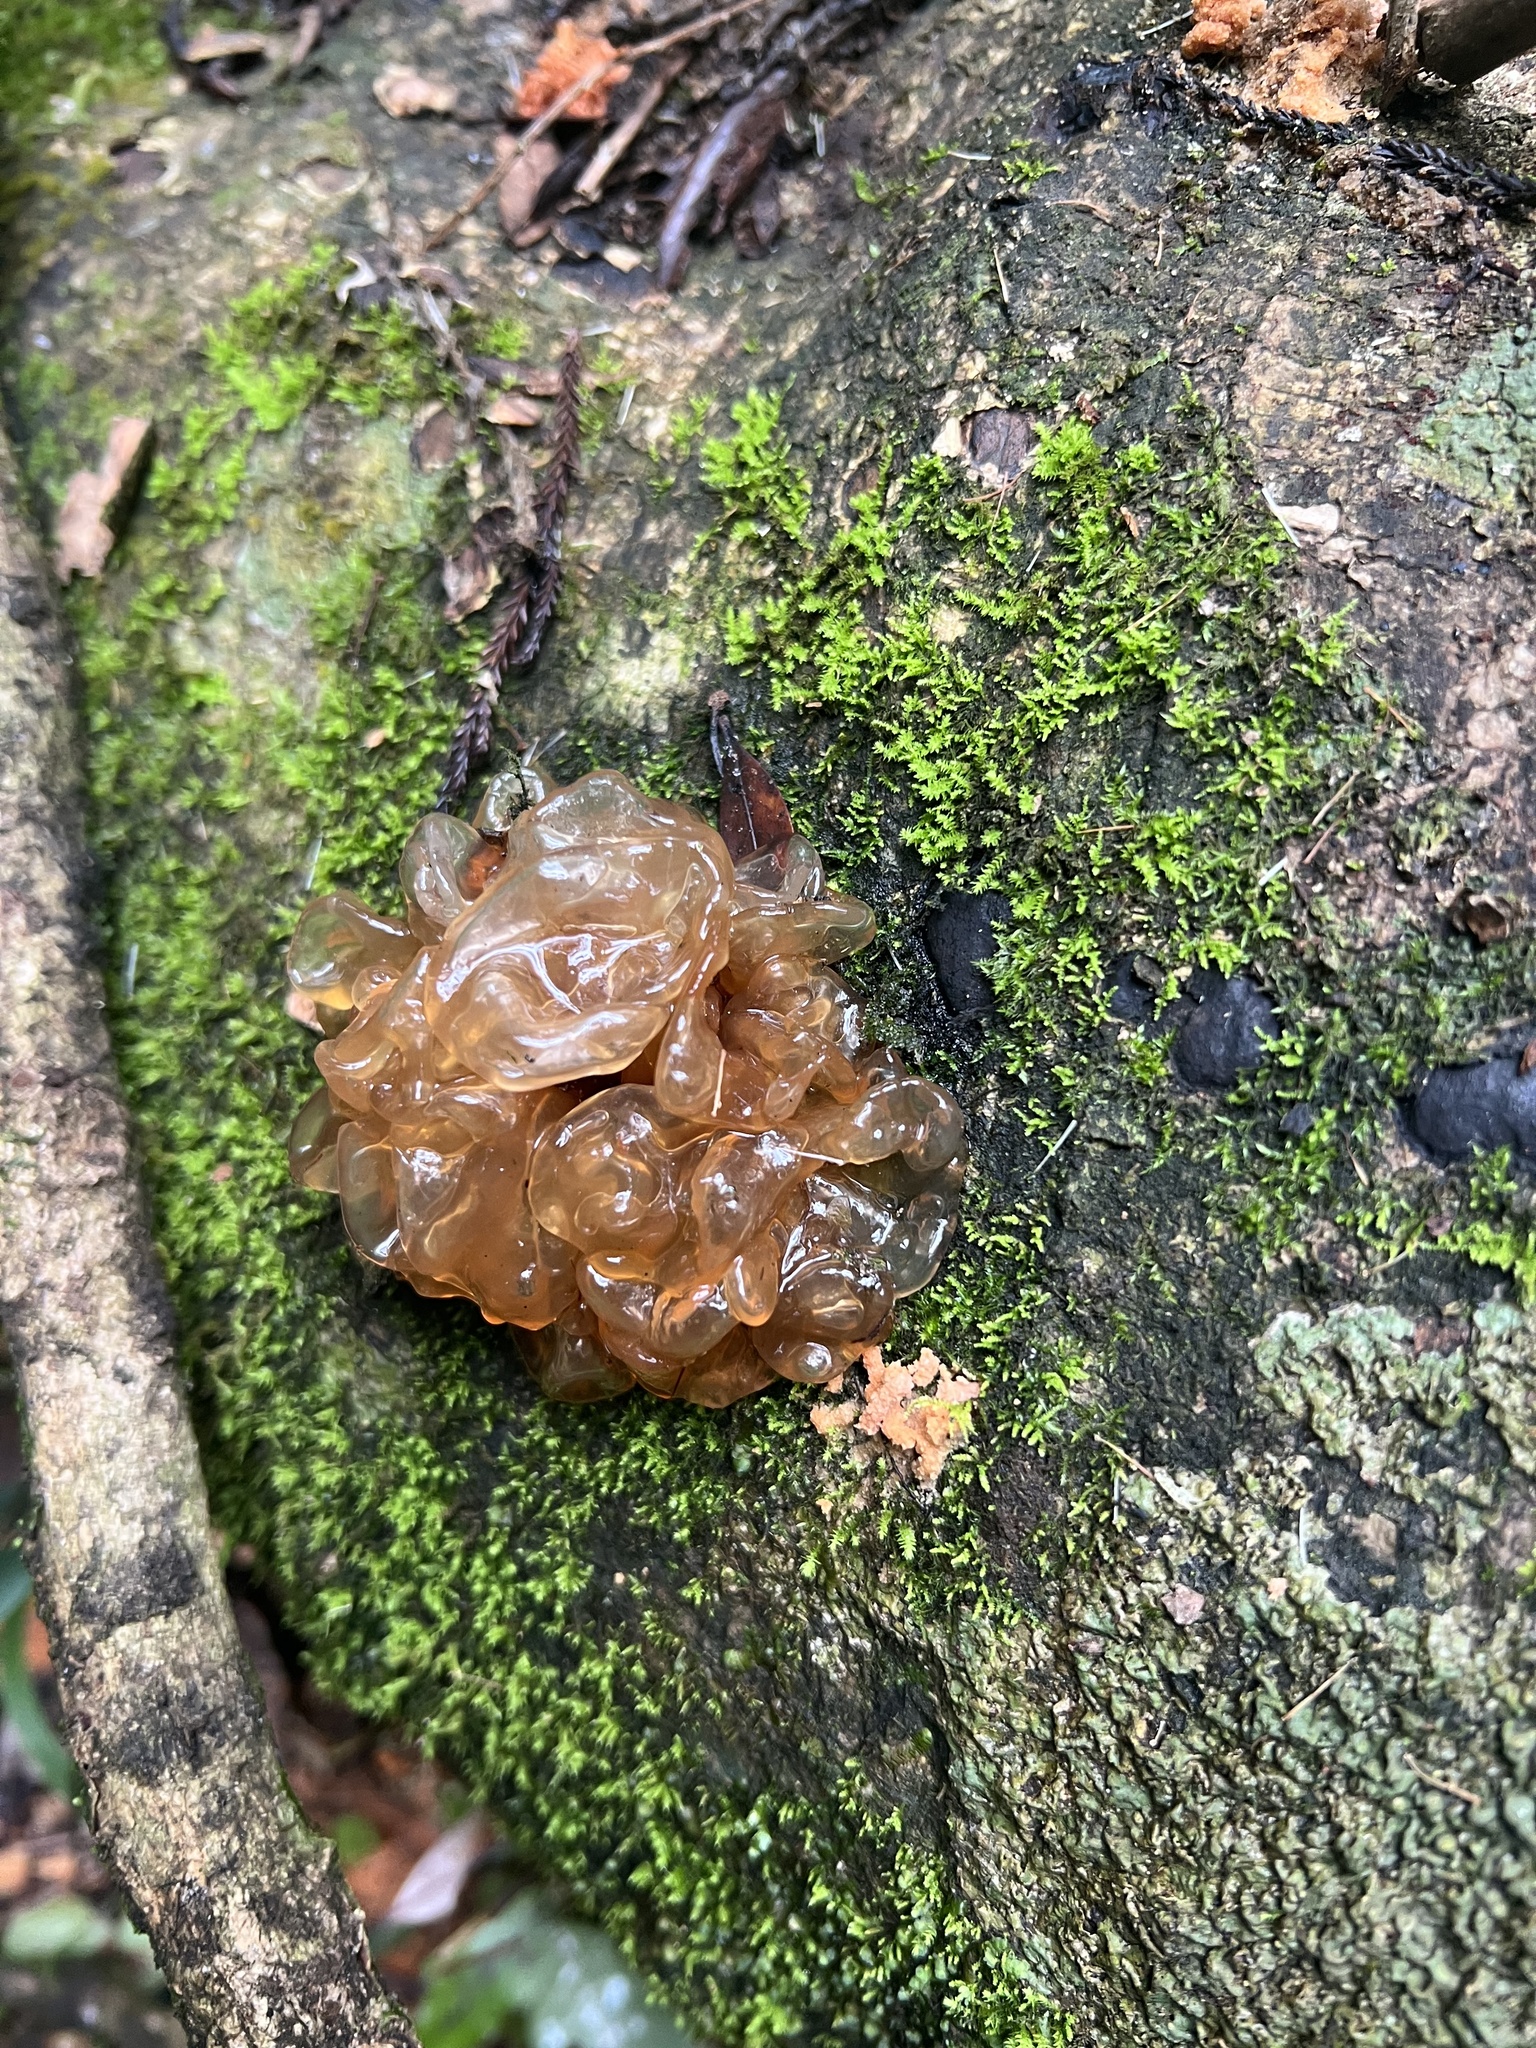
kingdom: Fungi
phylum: Basidiomycota
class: Tremellomycetes
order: Tremellales
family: Tremellaceae
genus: Tremella
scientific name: Tremella vesiculosa
